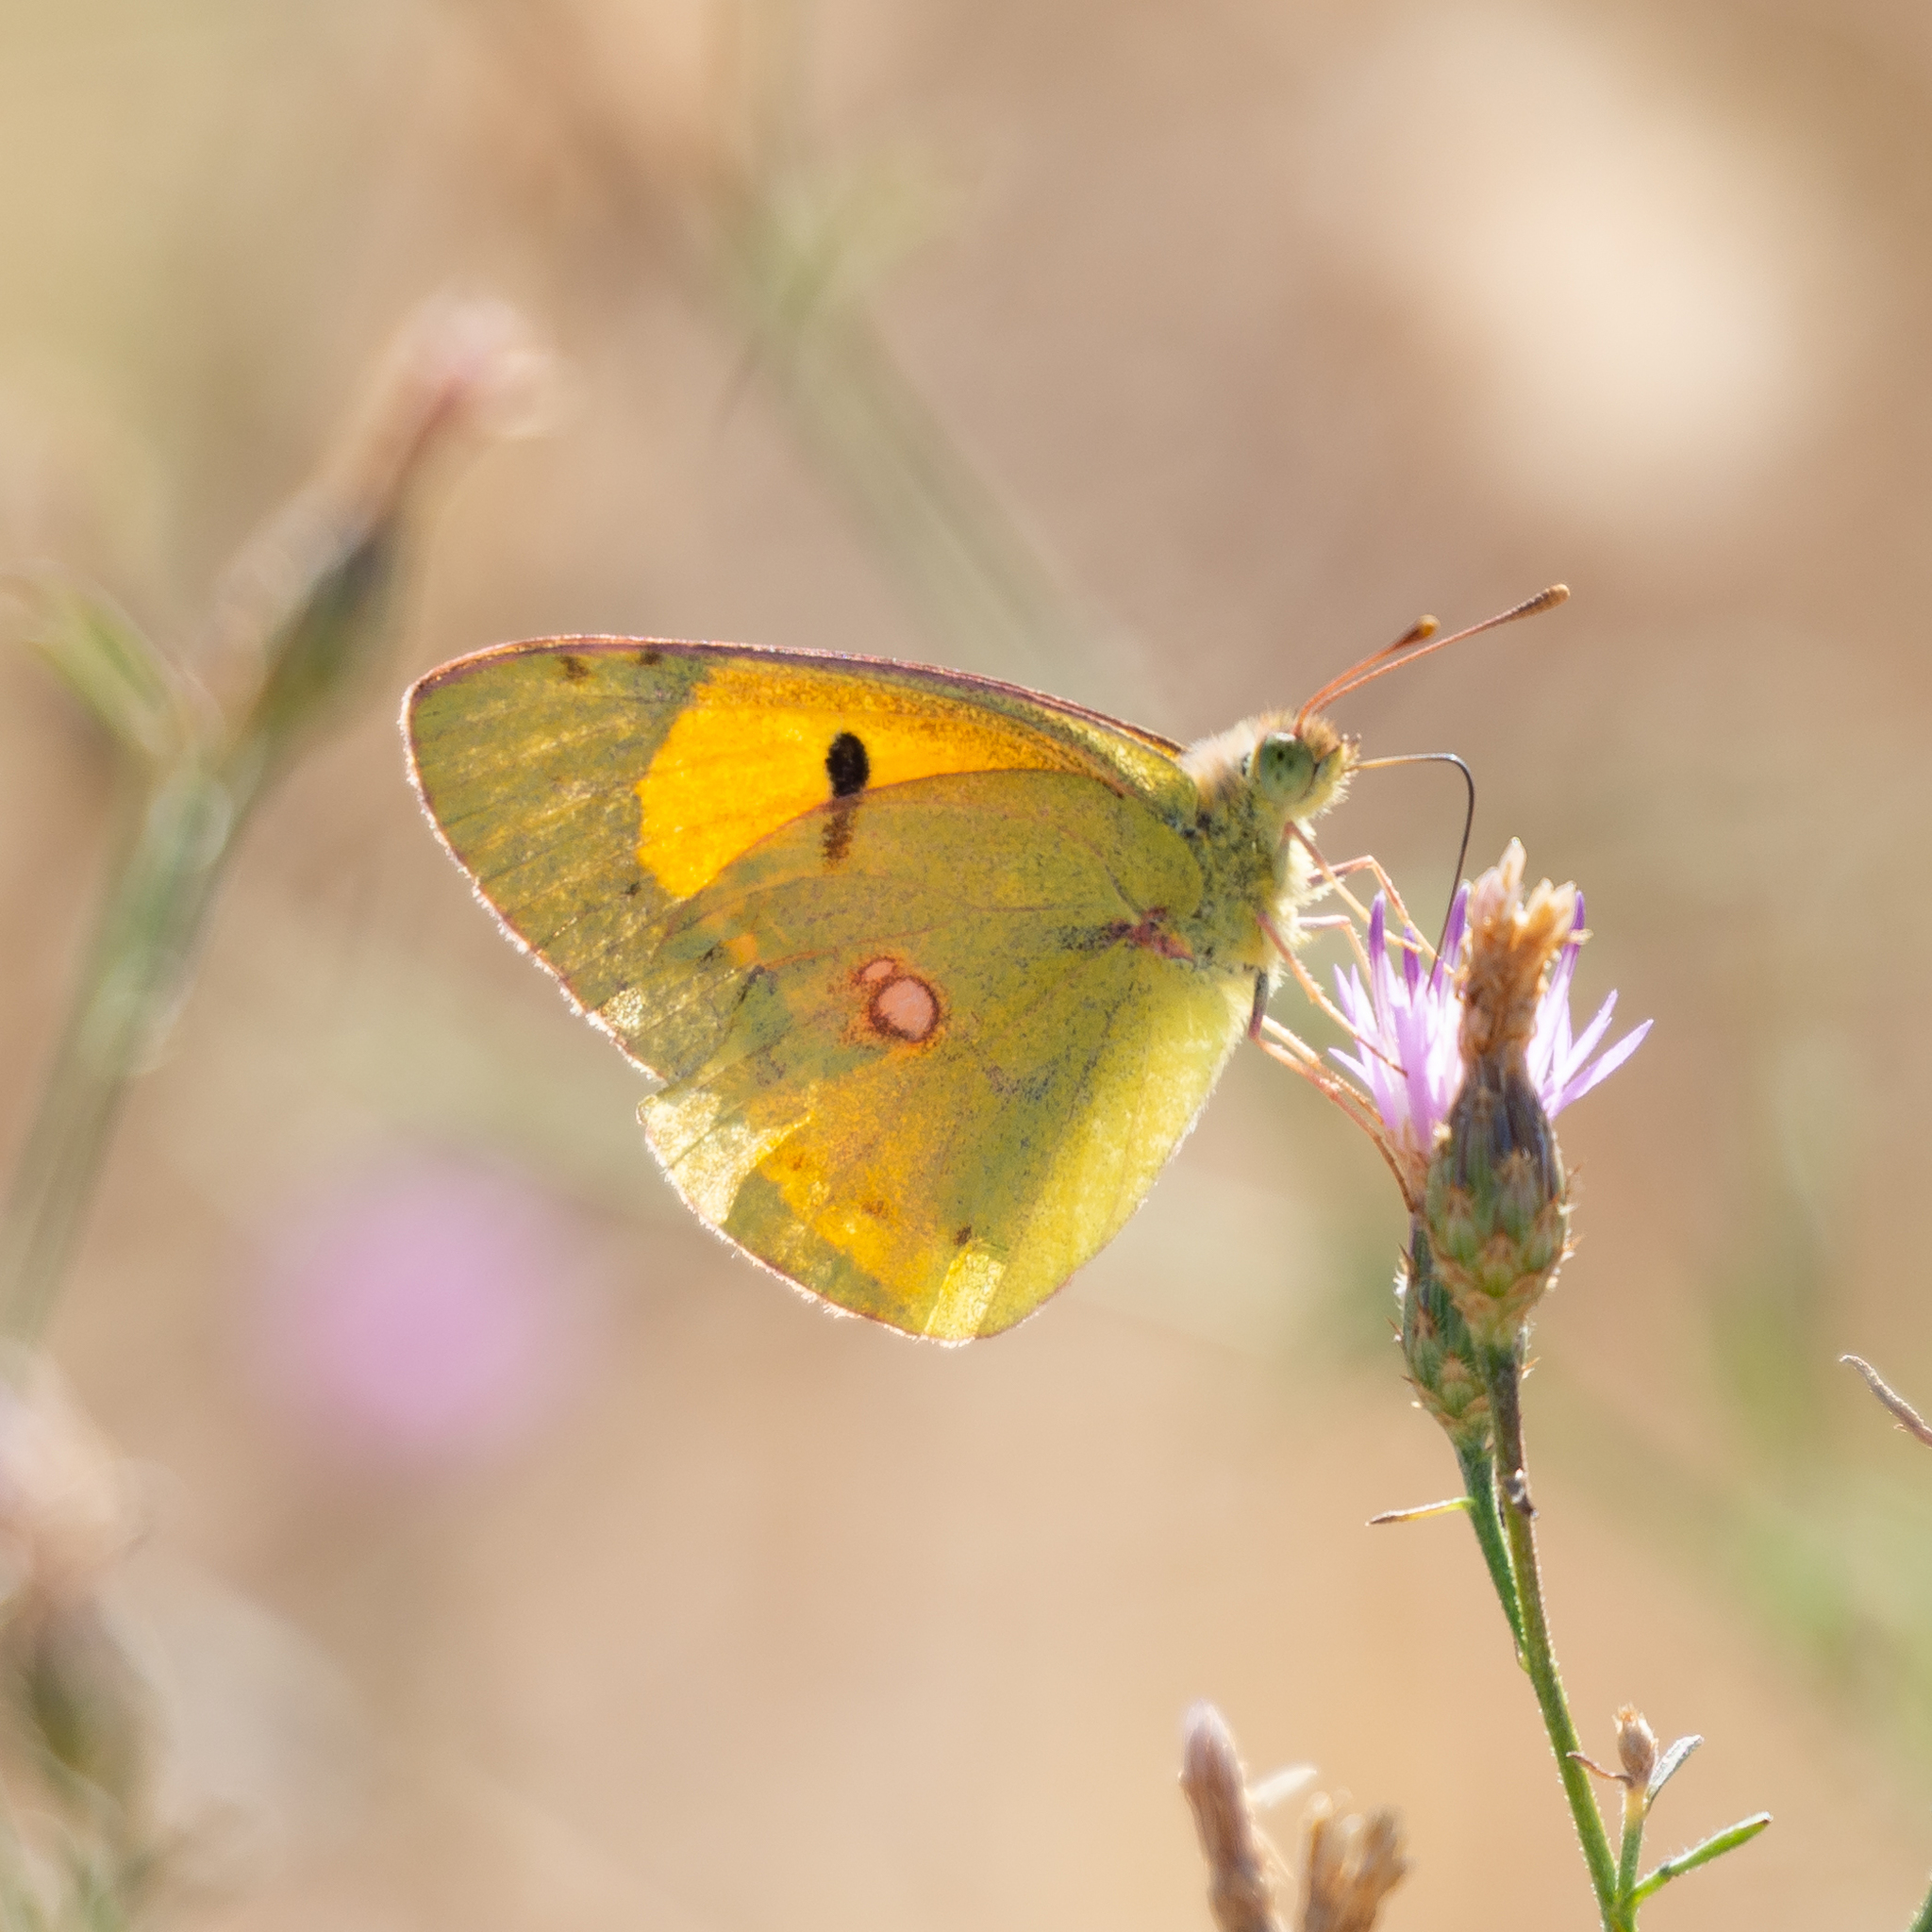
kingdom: Animalia
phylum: Arthropoda
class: Insecta
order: Lepidoptera
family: Pieridae
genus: Colias
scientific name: Colias croceus
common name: Clouded yellow
